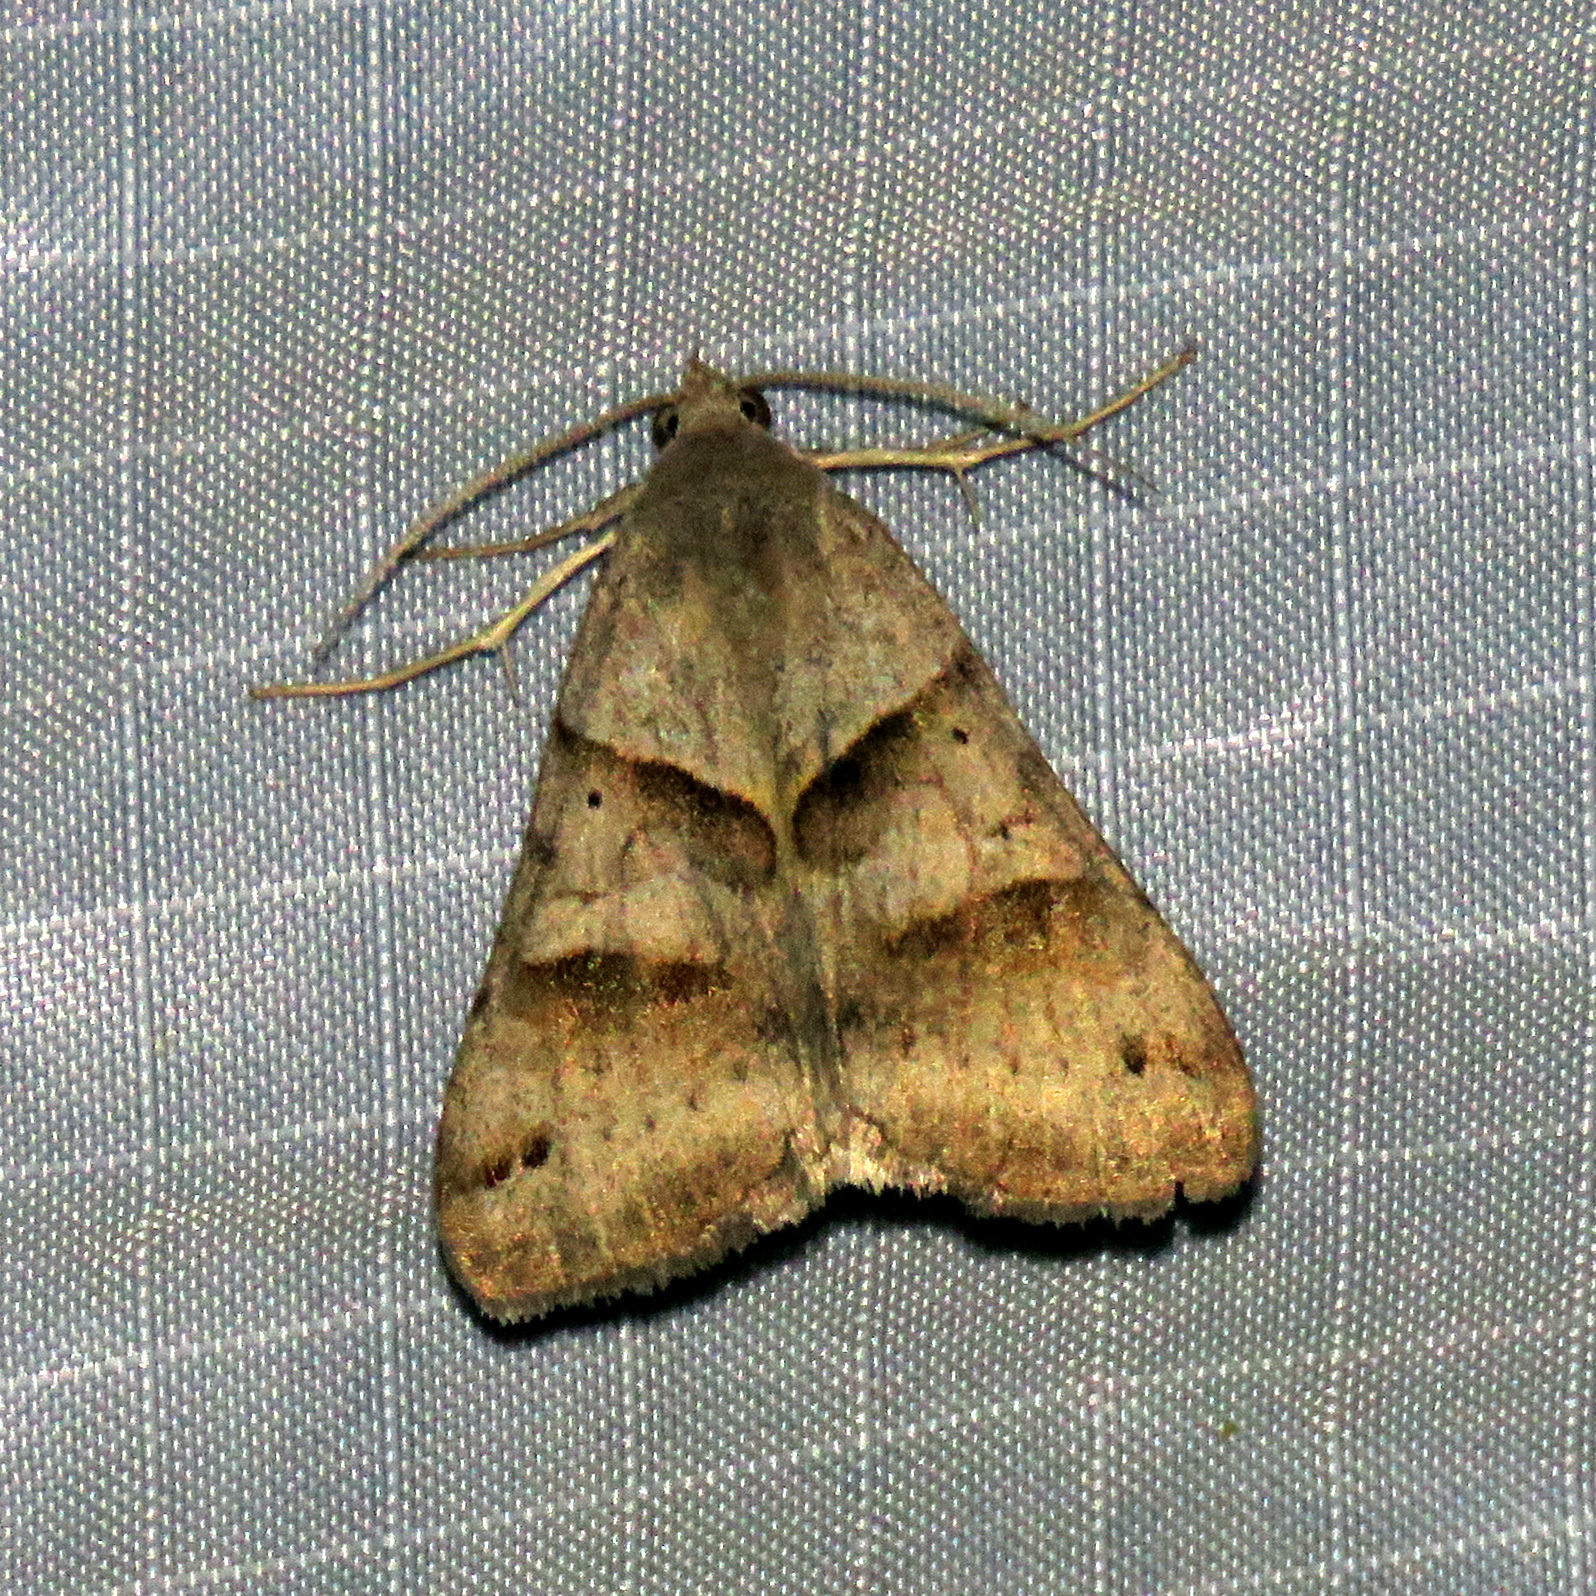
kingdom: Animalia
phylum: Arthropoda
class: Insecta
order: Lepidoptera
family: Erebidae
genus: Caenurgina
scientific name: Caenurgina erechtea
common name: Forage looper moth
